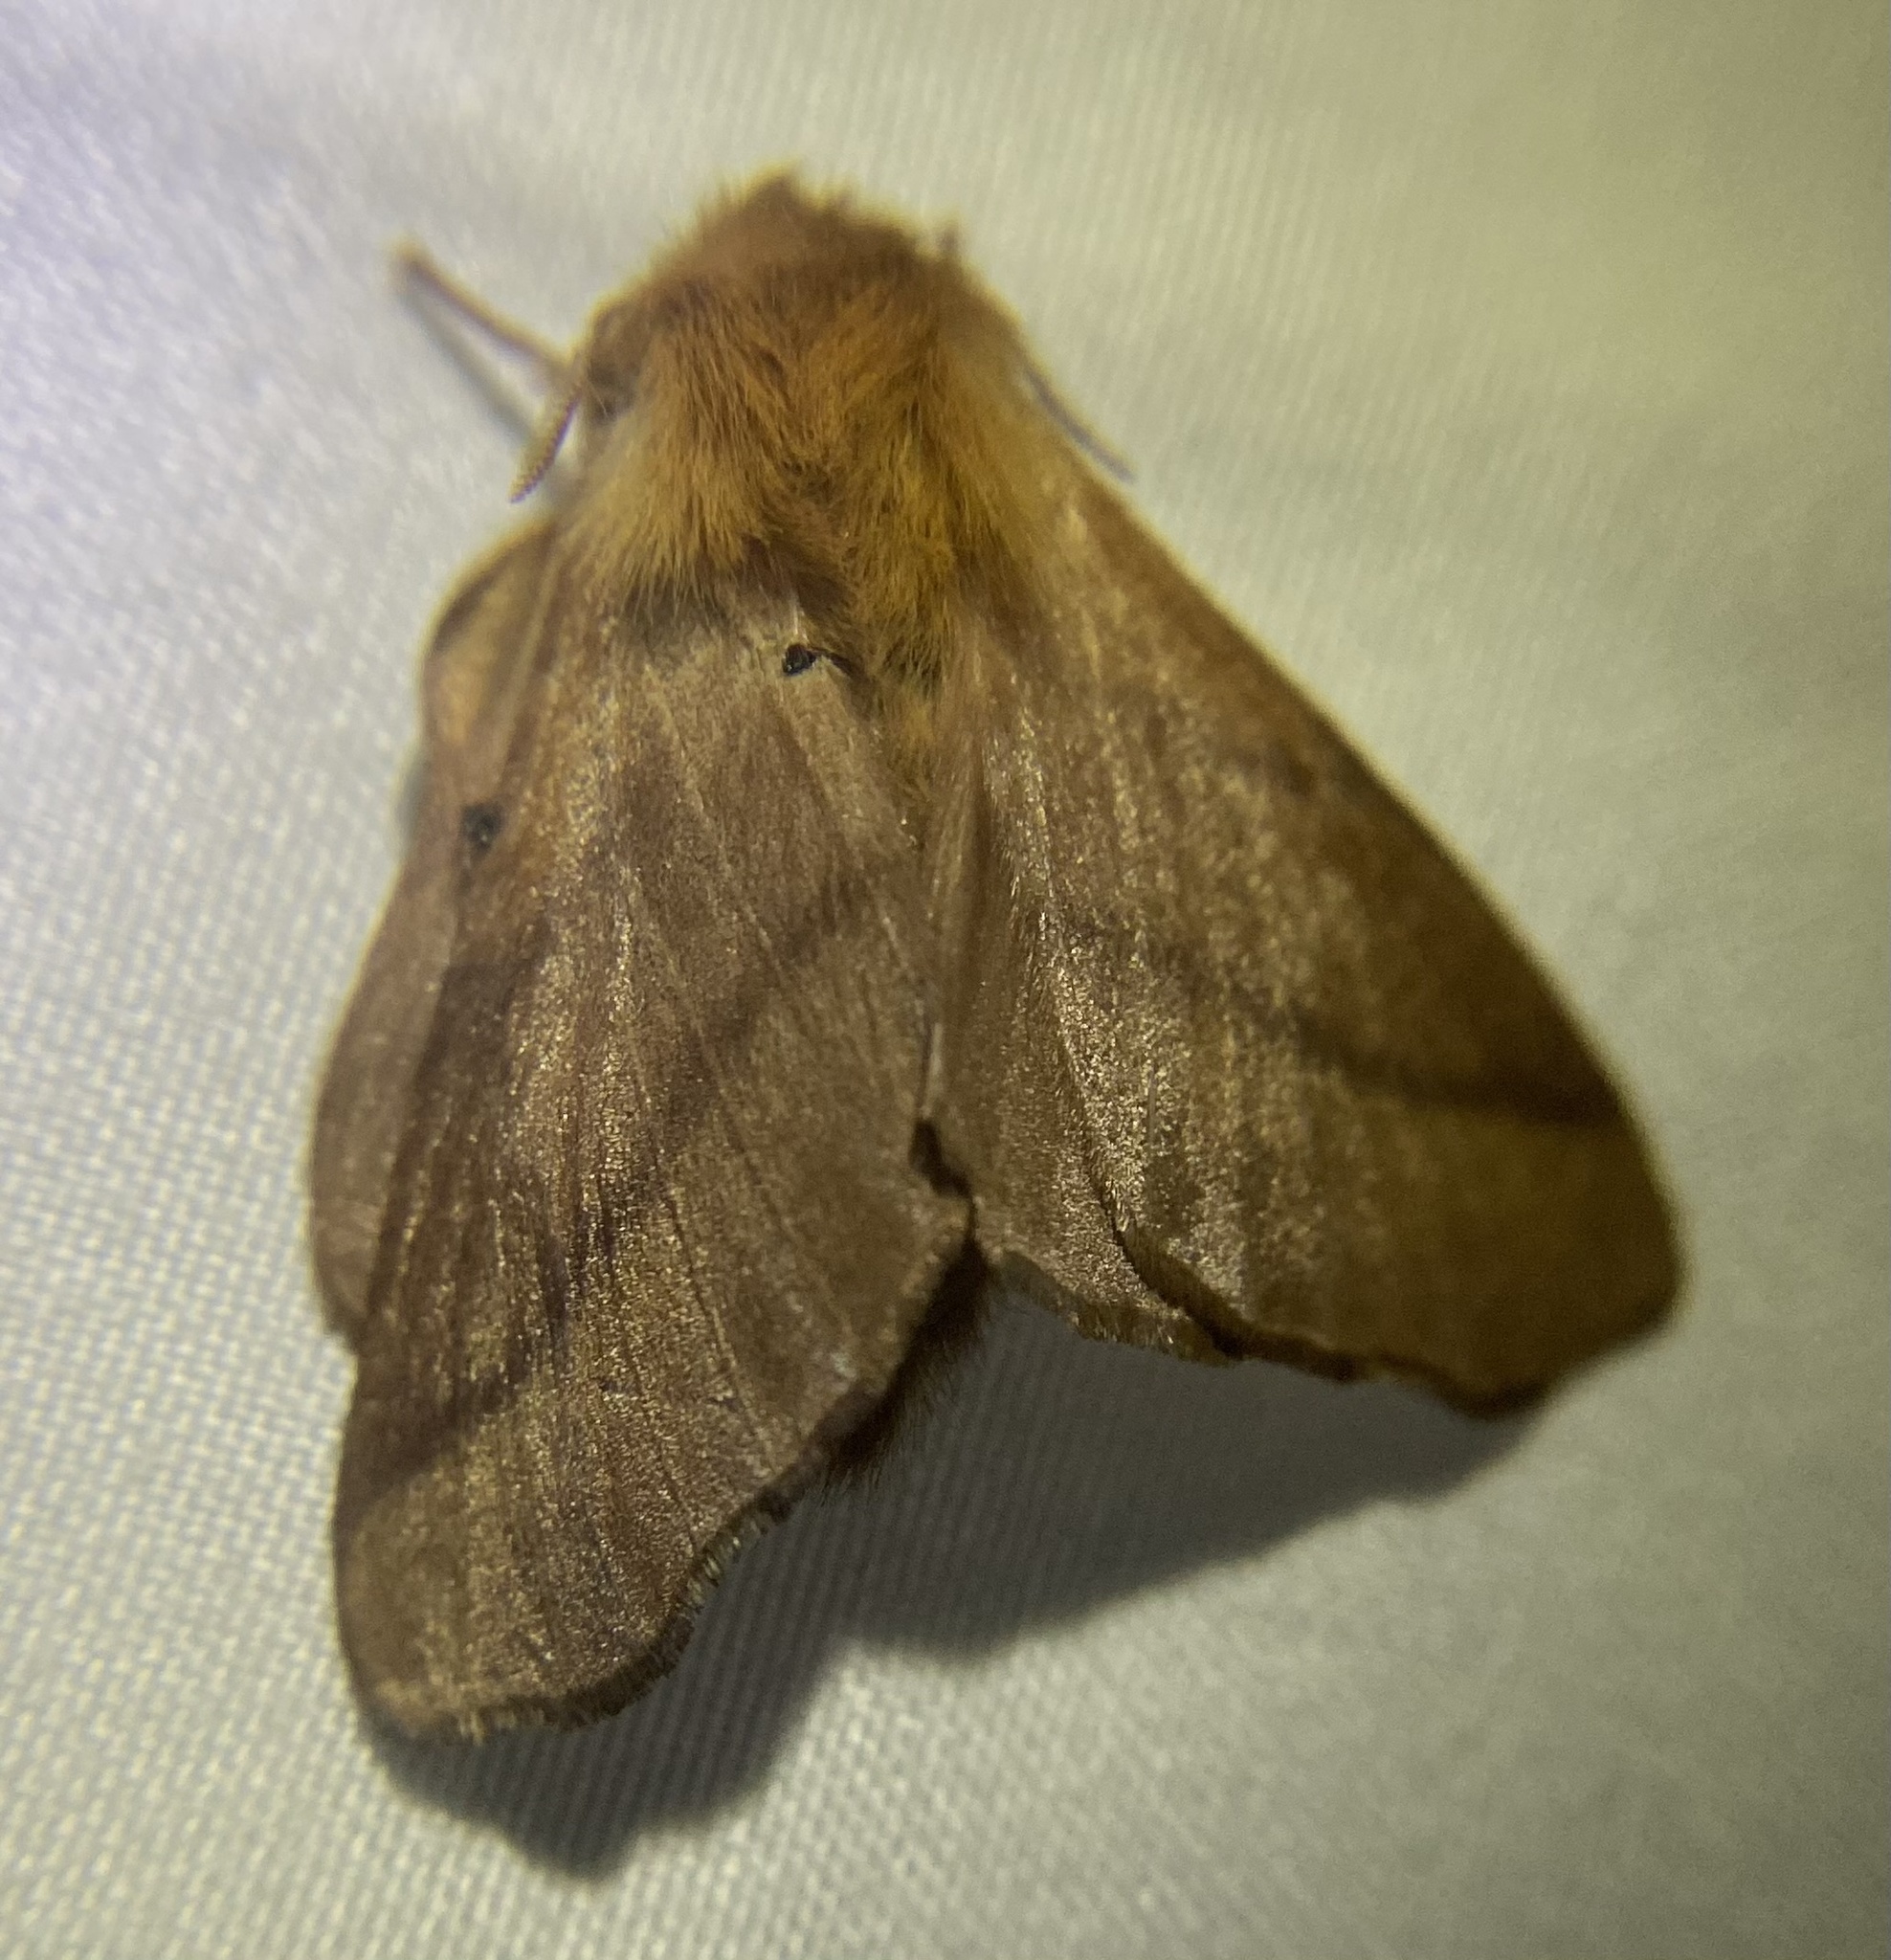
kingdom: Animalia
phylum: Arthropoda
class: Insecta
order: Lepidoptera
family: Lasiocampidae
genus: Malacosoma
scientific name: Malacosoma disstria
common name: Forest tent caterpillar
